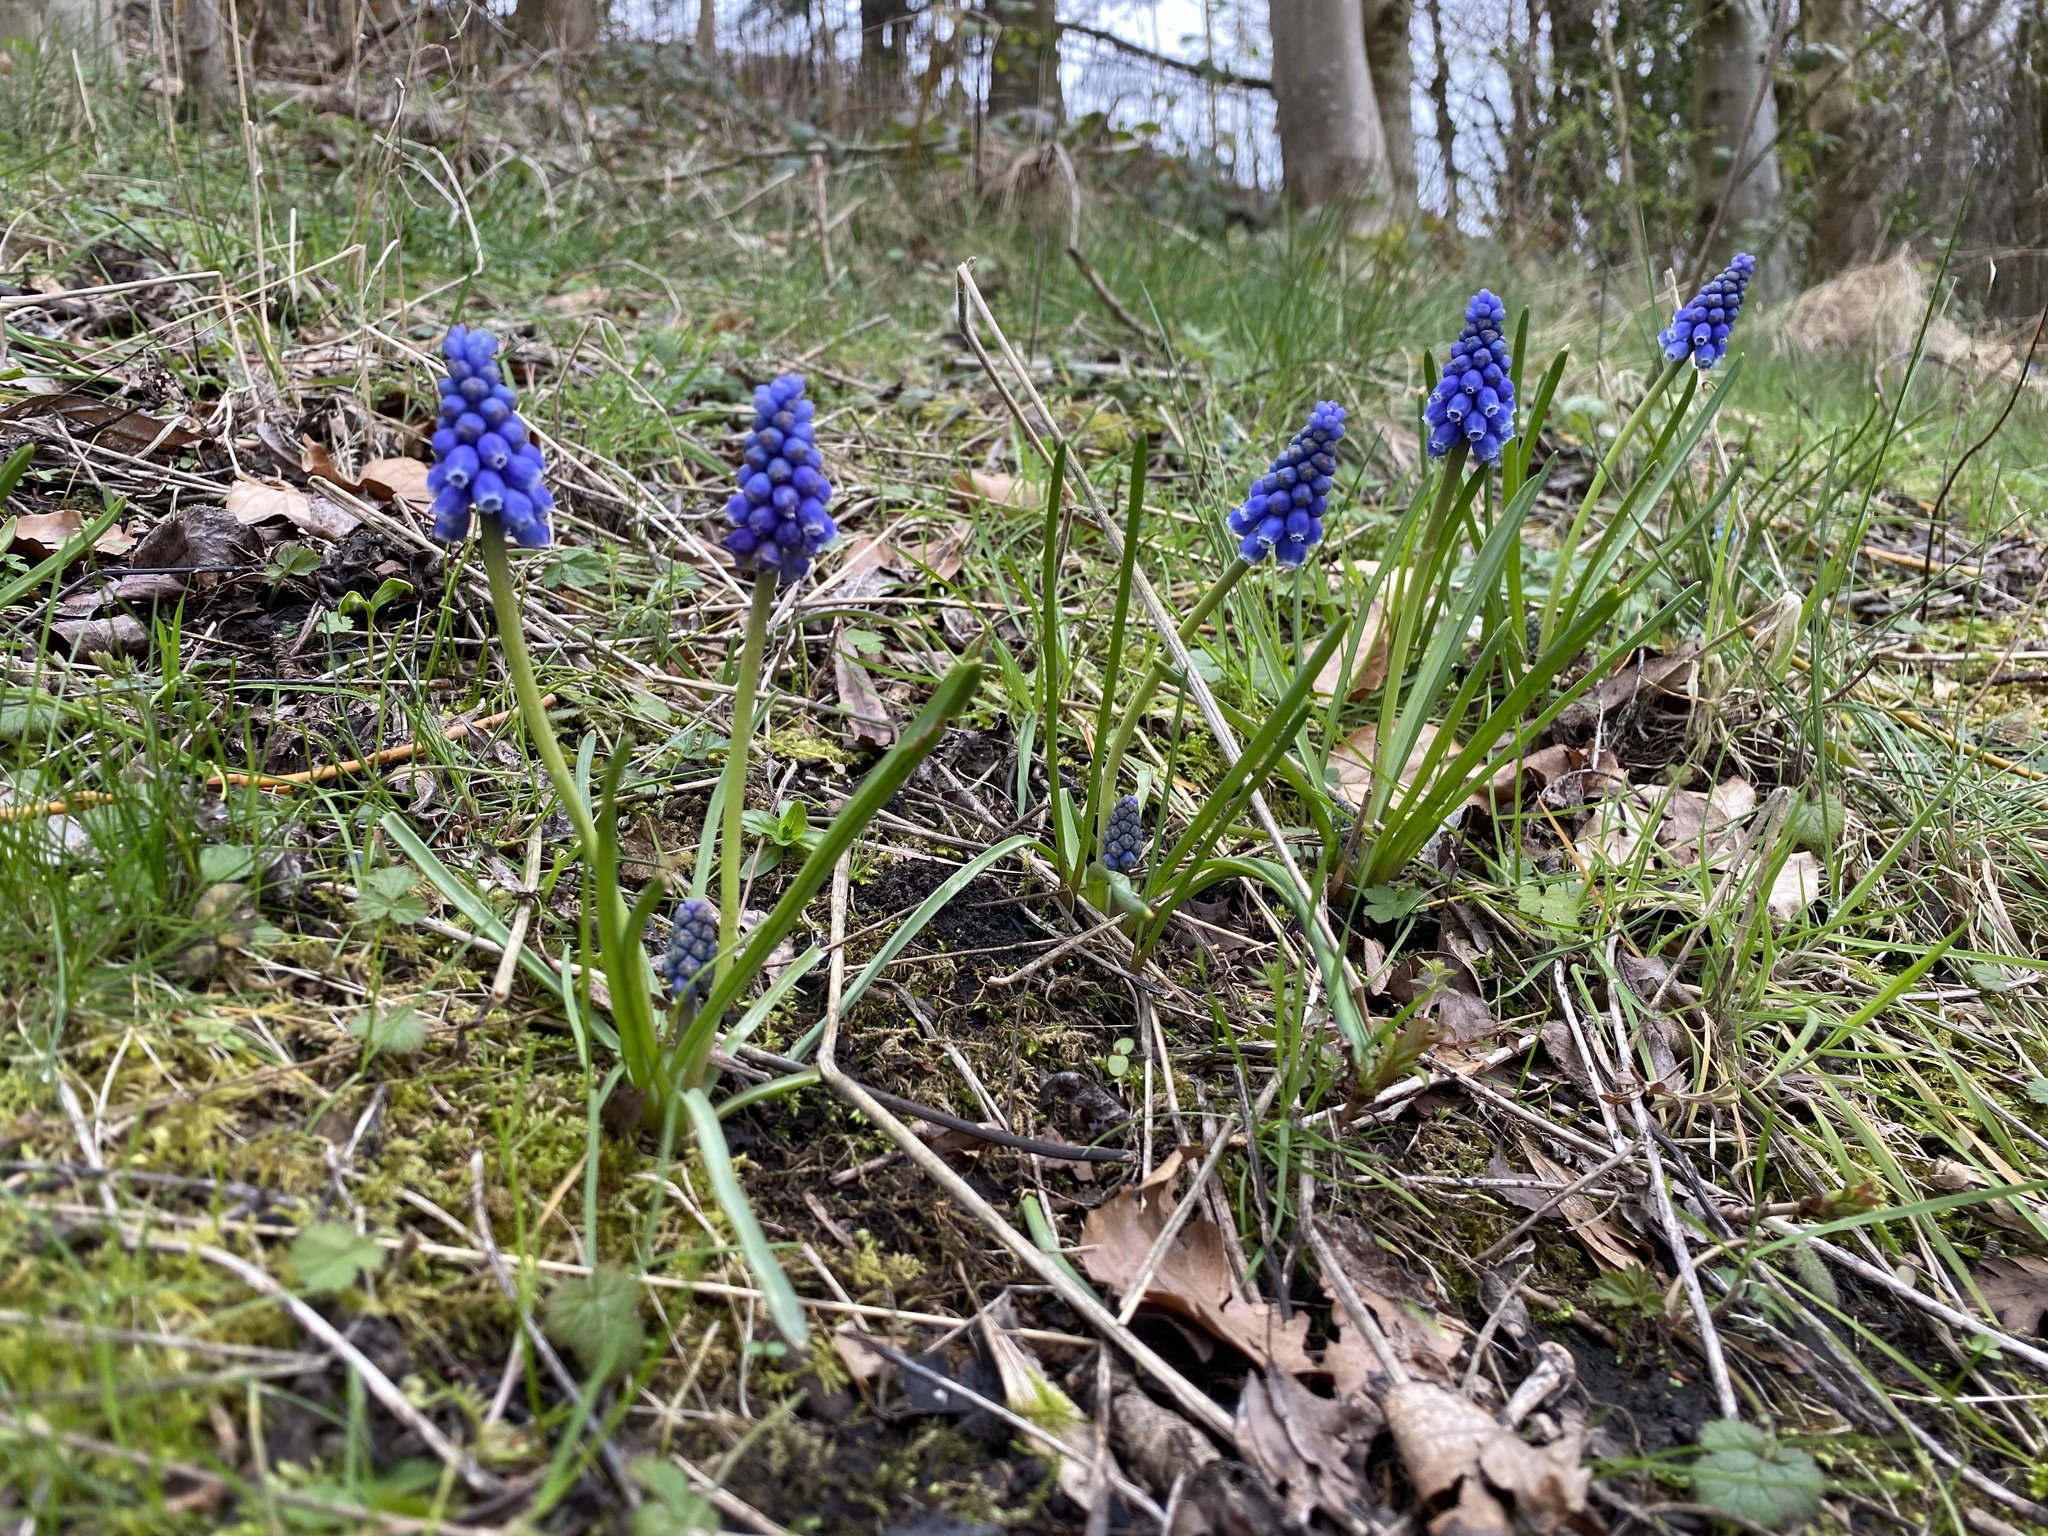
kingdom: Plantae
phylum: Tracheophyta
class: Liliopsida
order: Asparagales
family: Asparagaceae
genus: Muscari
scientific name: Muscari armeniacum
